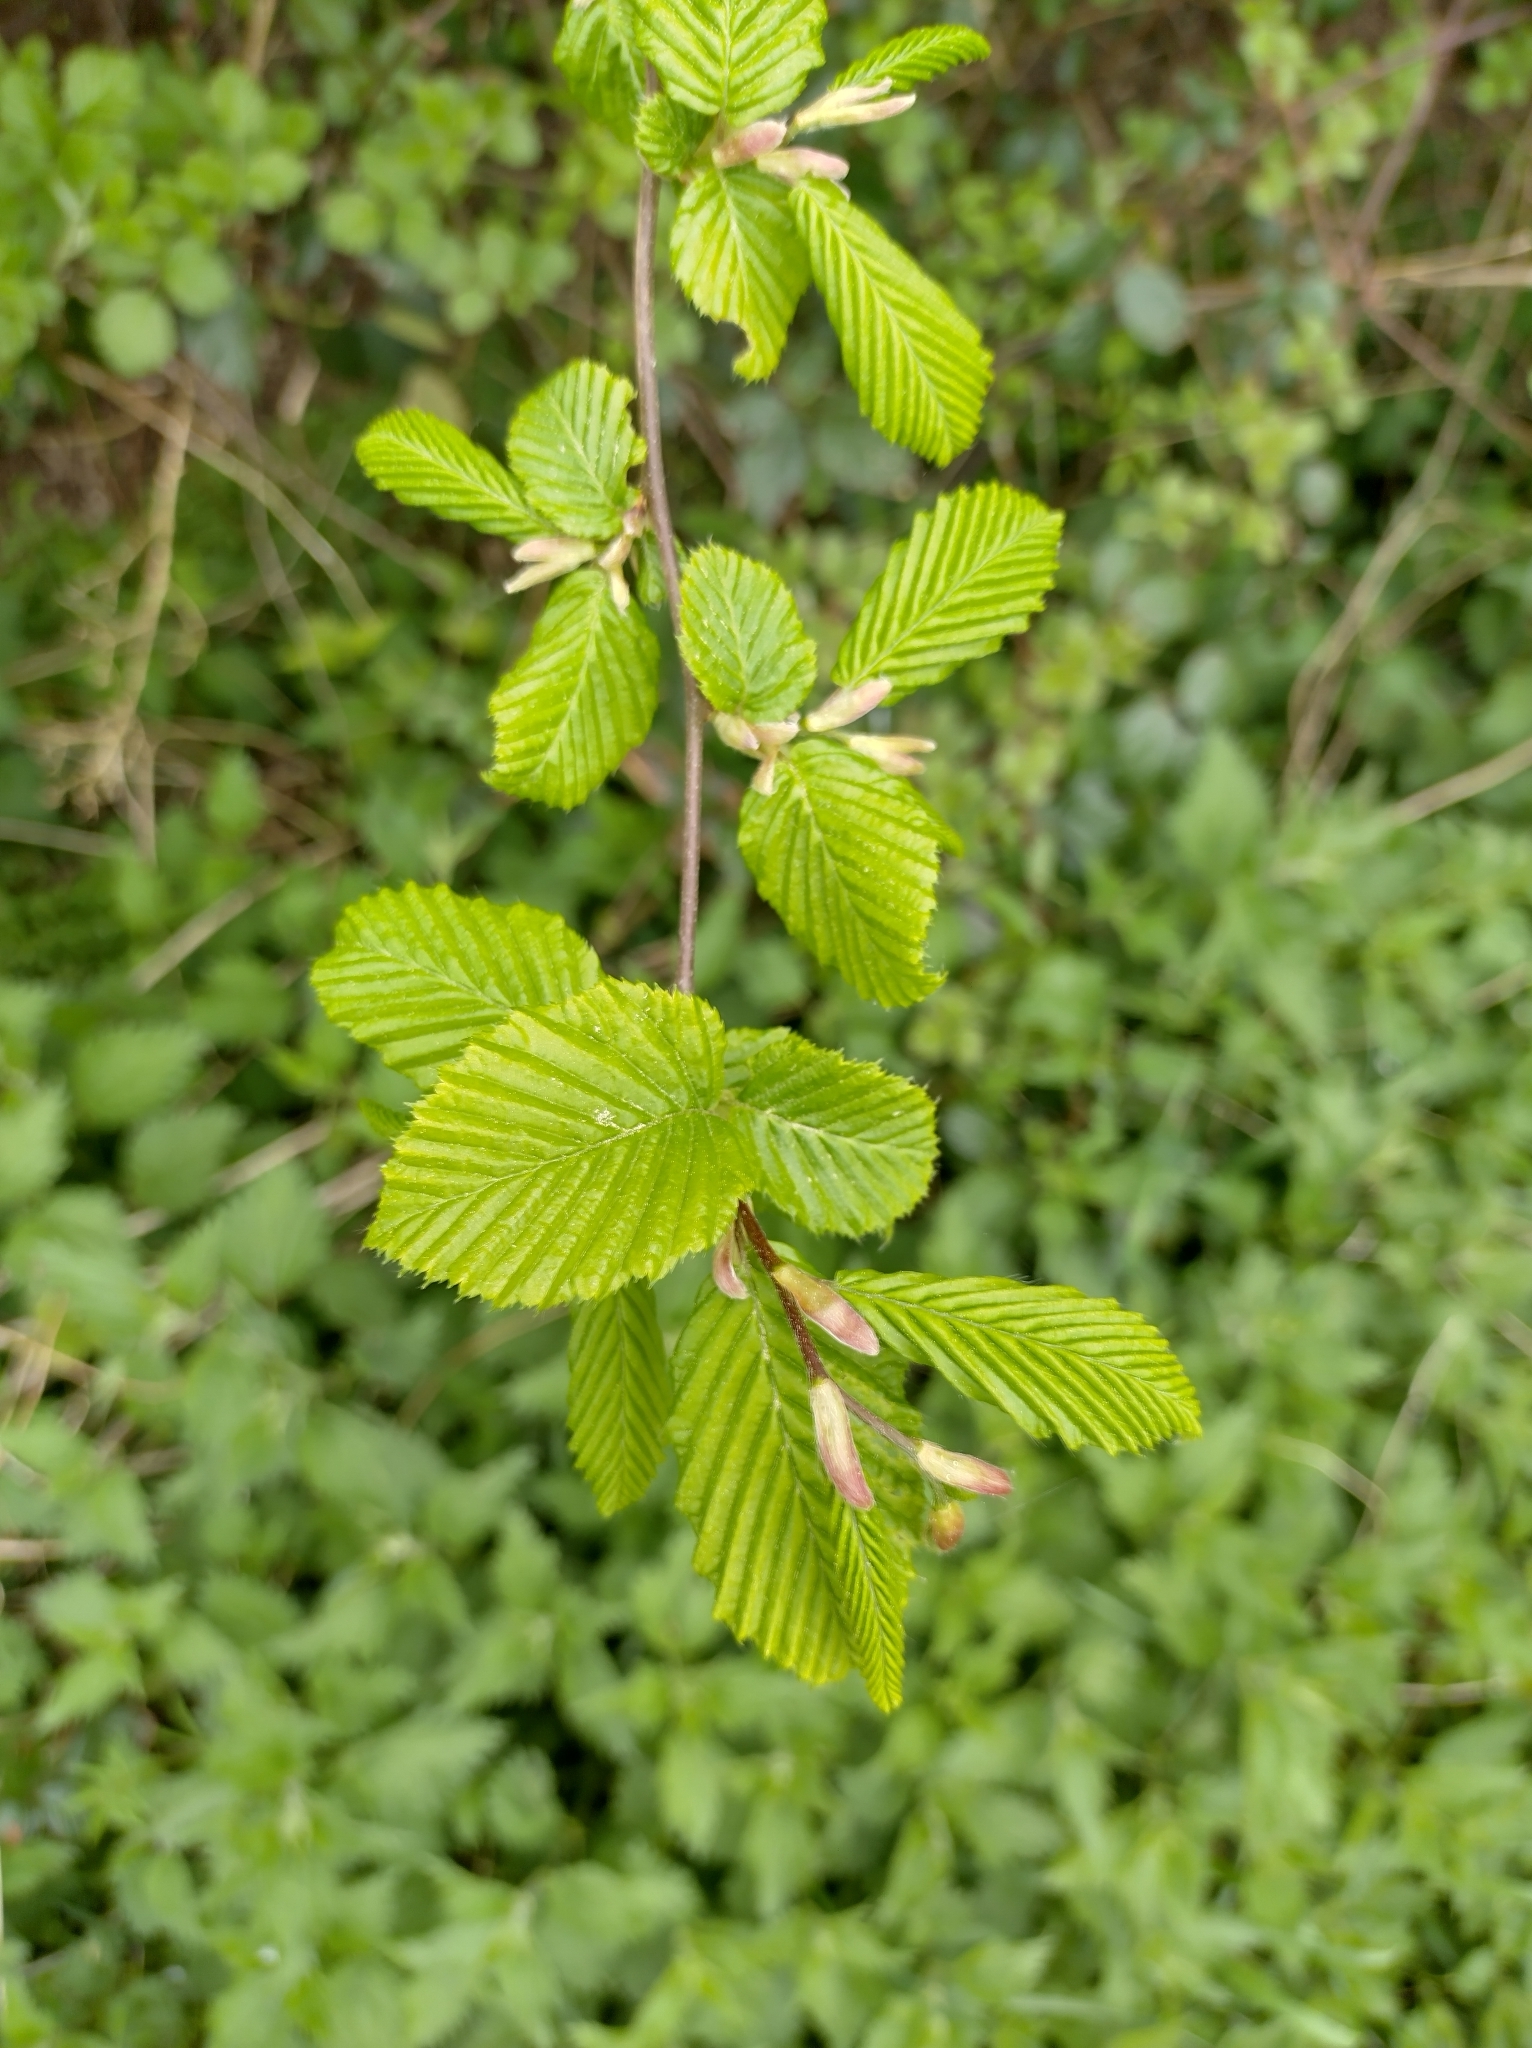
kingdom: Plantae
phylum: Tracheophyta
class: Magnoliopsida
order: Fagales
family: Betulaceae
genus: Carpinus
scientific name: Carpinus betulus
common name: Hornbeam
